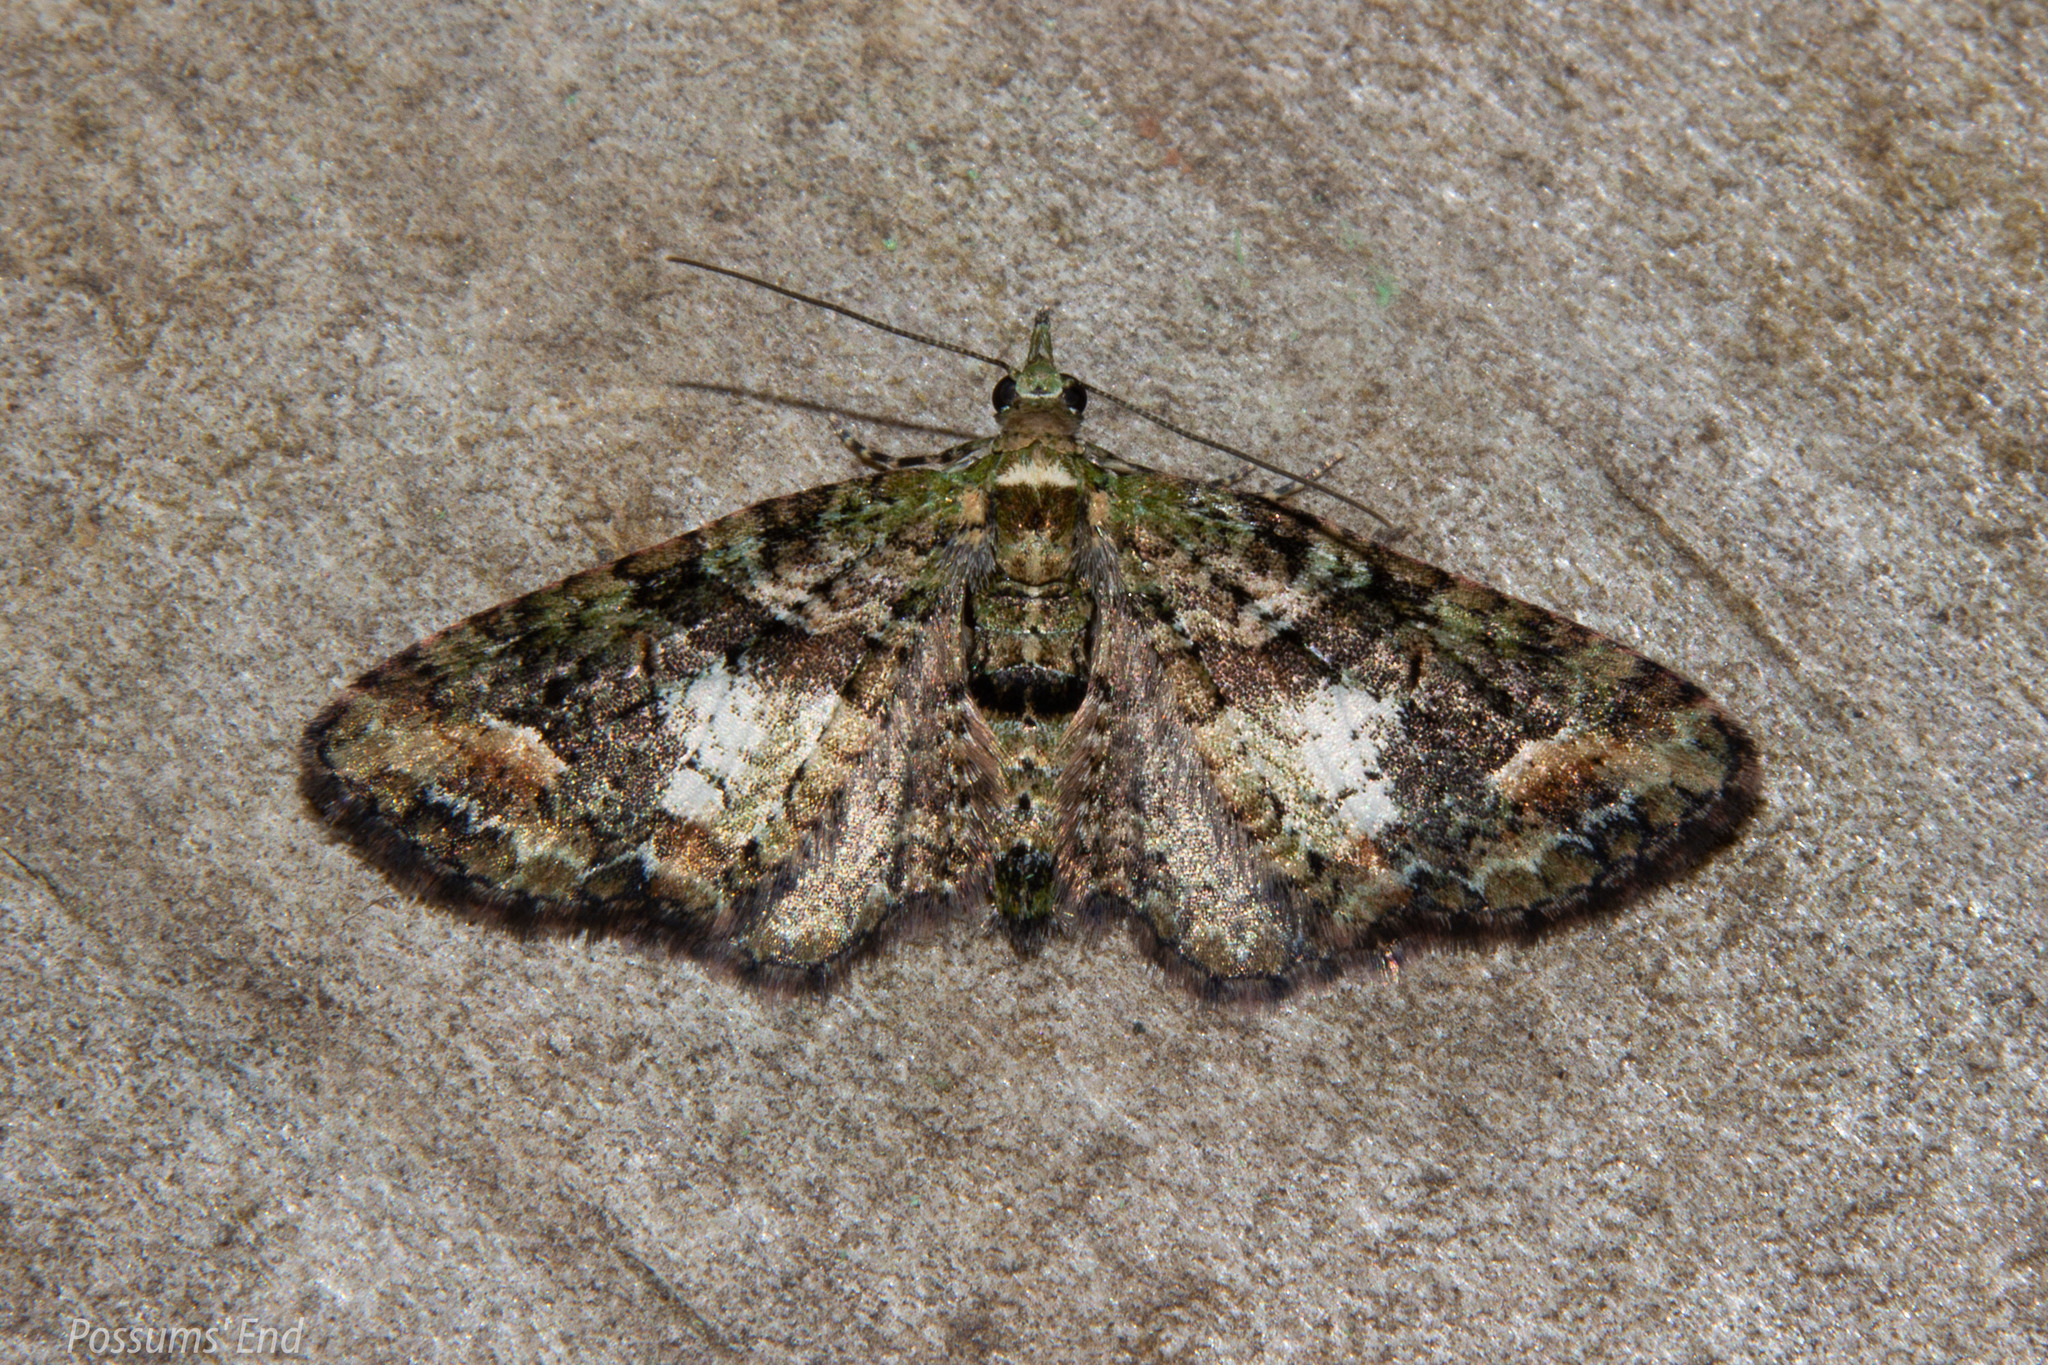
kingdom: Animalia
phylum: Arthropoda
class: Insecta
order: Lepidoptera
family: Geometridae
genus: Idaea
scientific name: Idaea mutanda
